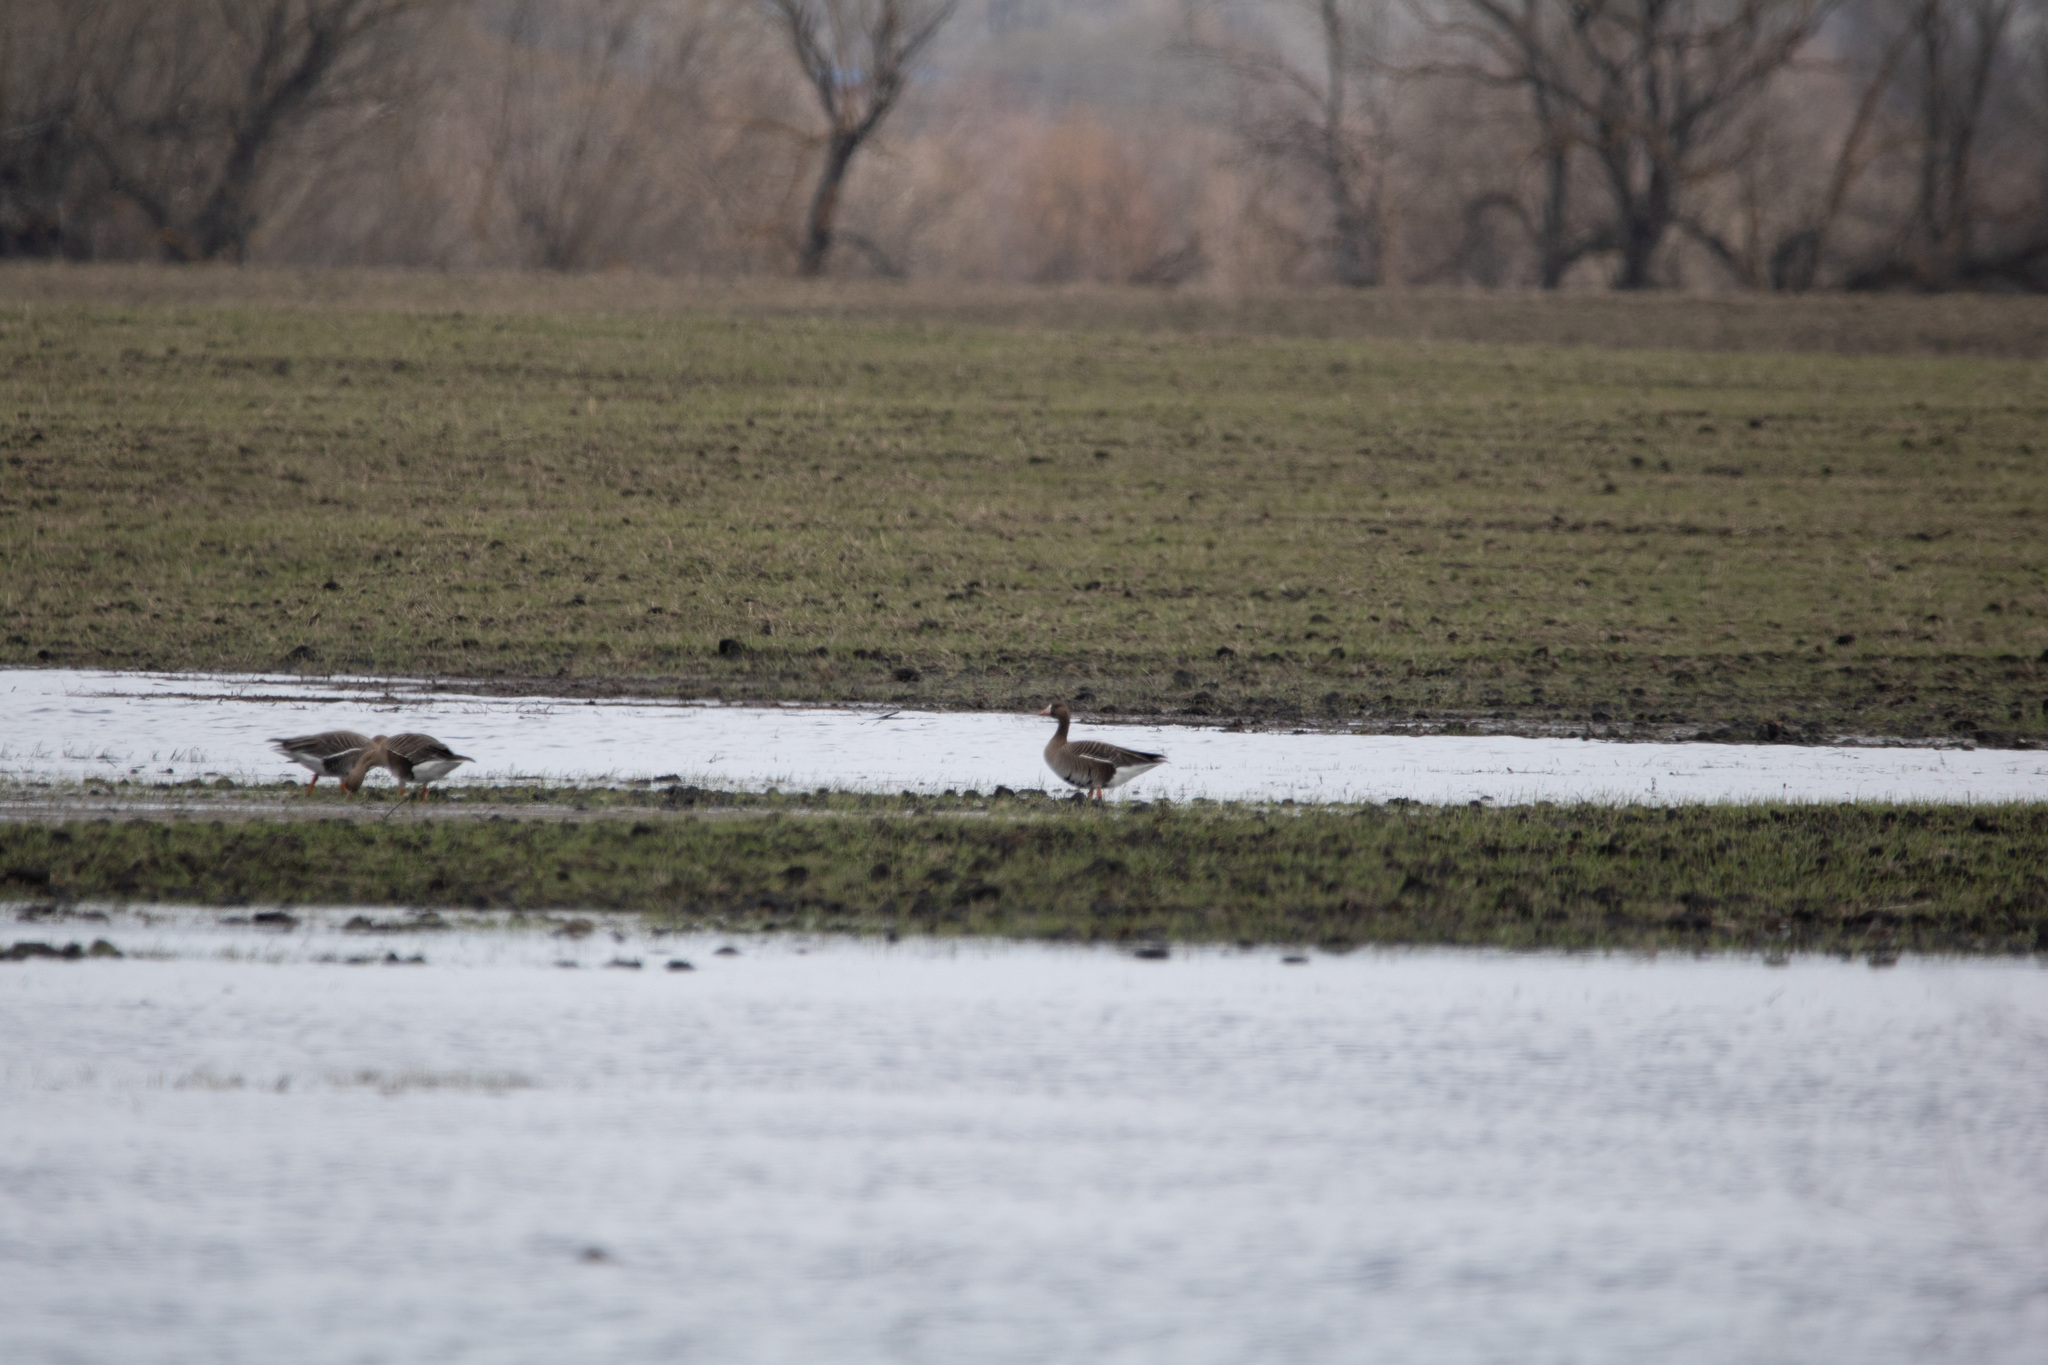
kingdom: Animalia
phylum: Chordata
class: Aves
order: Anseriformes
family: Anatidae
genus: Anser
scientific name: Anser albifrons
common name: Greater white-fronted goose
